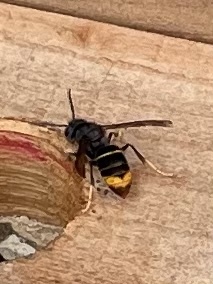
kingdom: Animalia
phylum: Arthropoda
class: Insecta
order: Hymenoptera
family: Vespidae
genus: Vespa
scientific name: Vespa velutina
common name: Asian hornet
